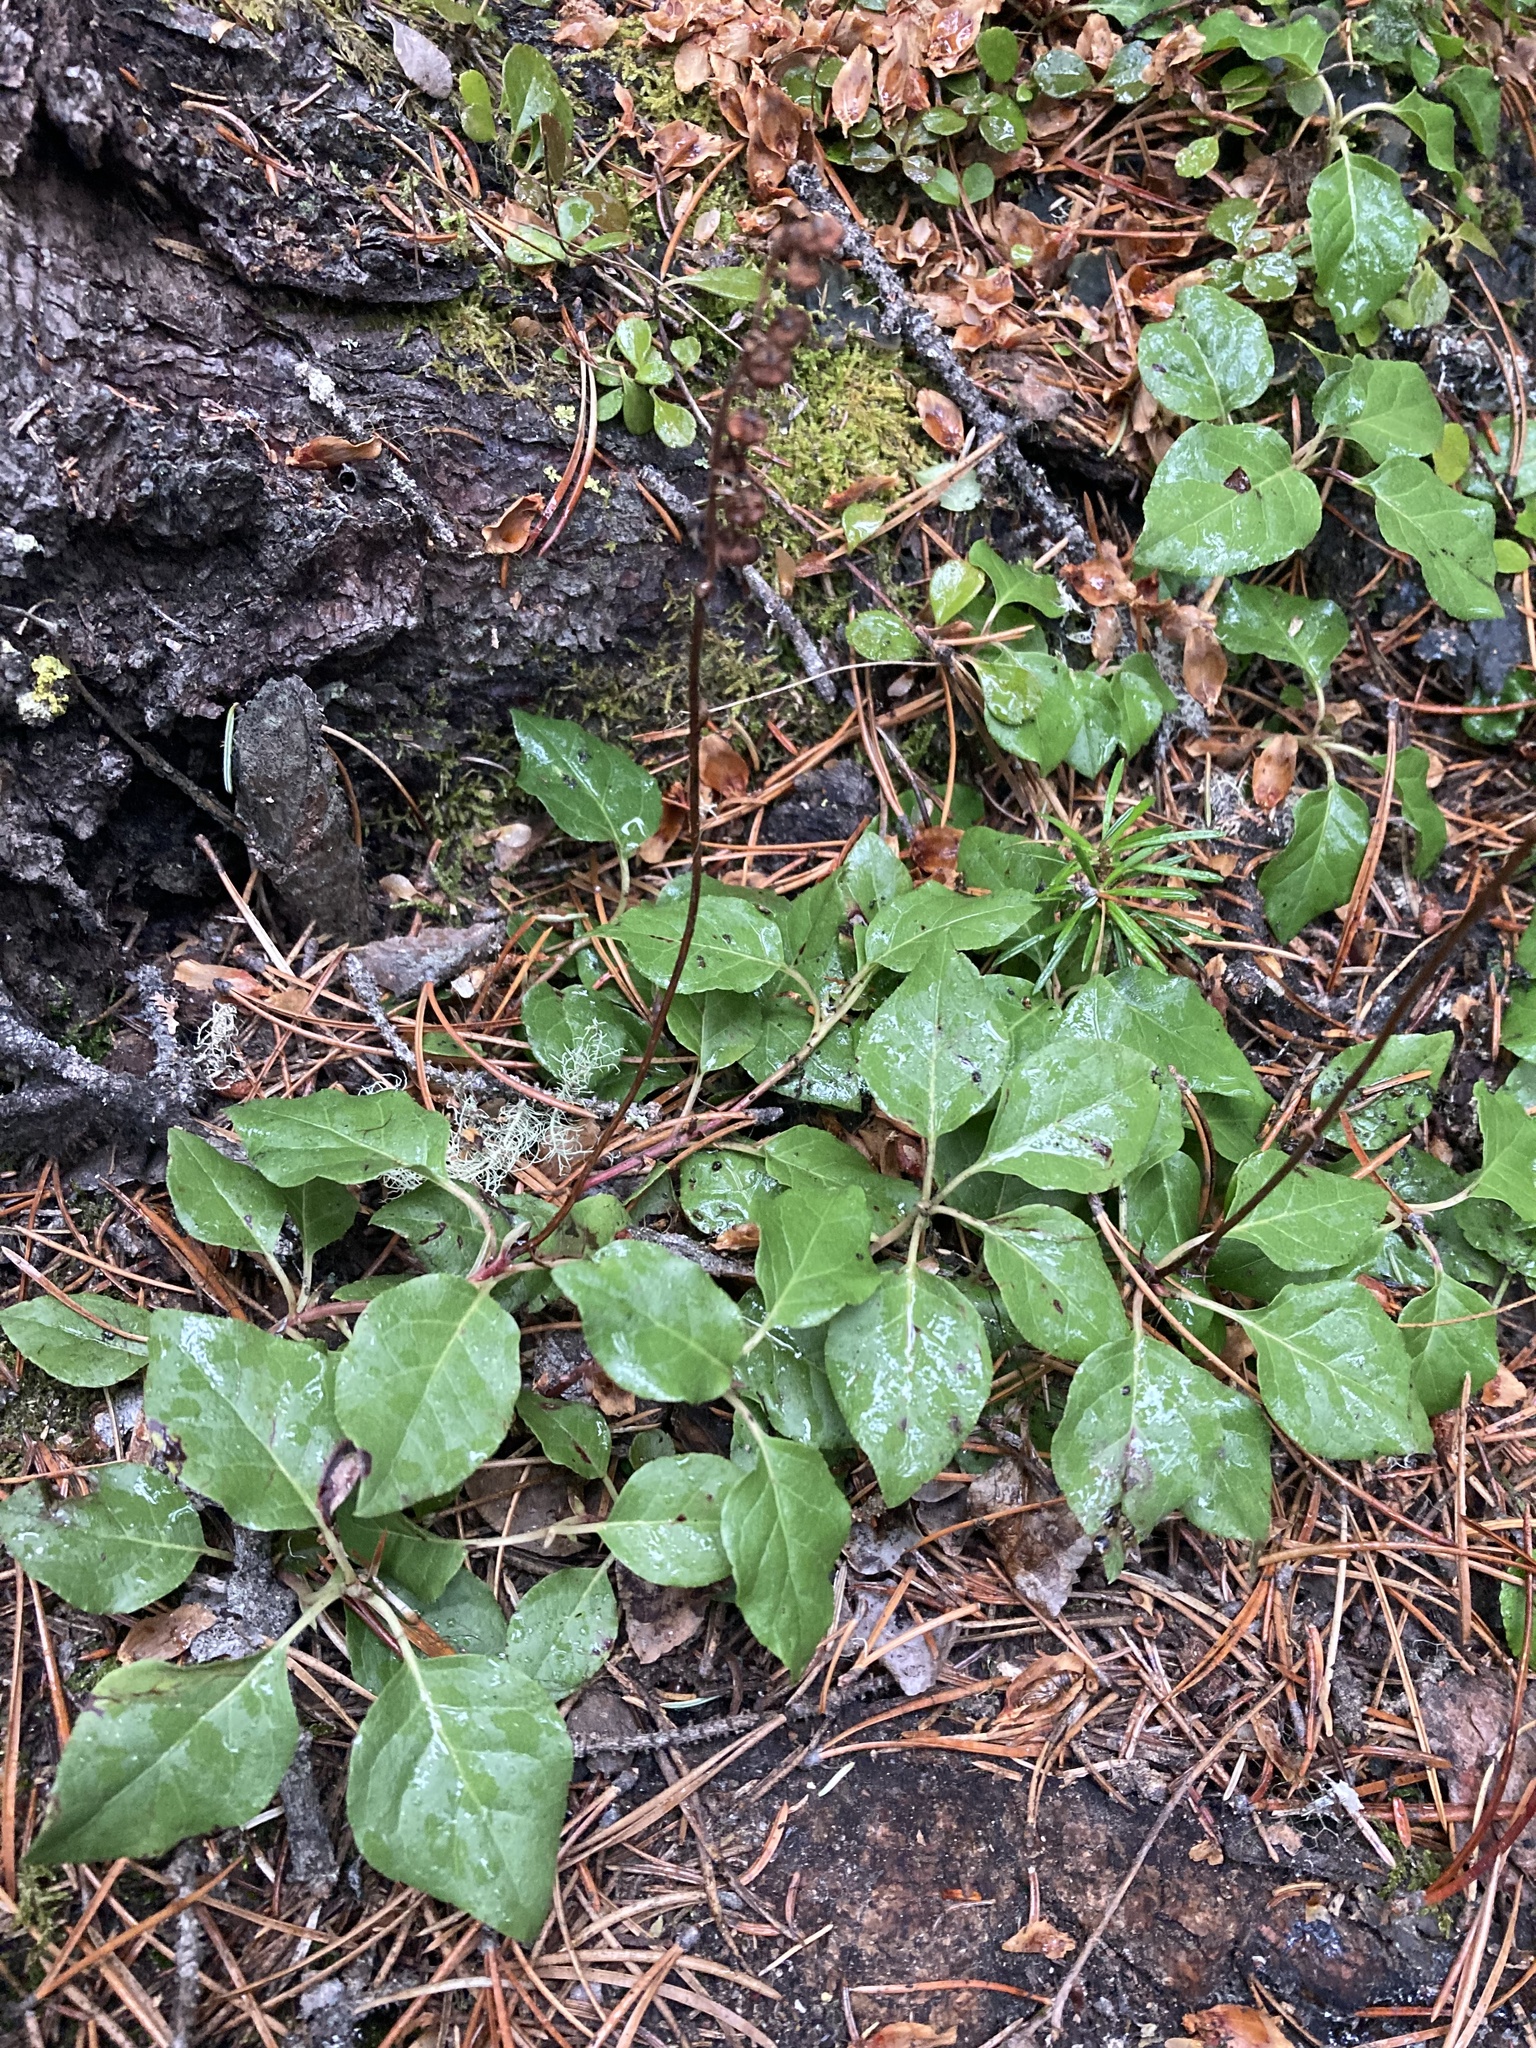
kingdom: Plantae
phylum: Tracheophyta
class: Magnoliopsida
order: Ericales
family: Ericaceae
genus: Orthilia
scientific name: Orthilia secunda
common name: One-sided orthilia
